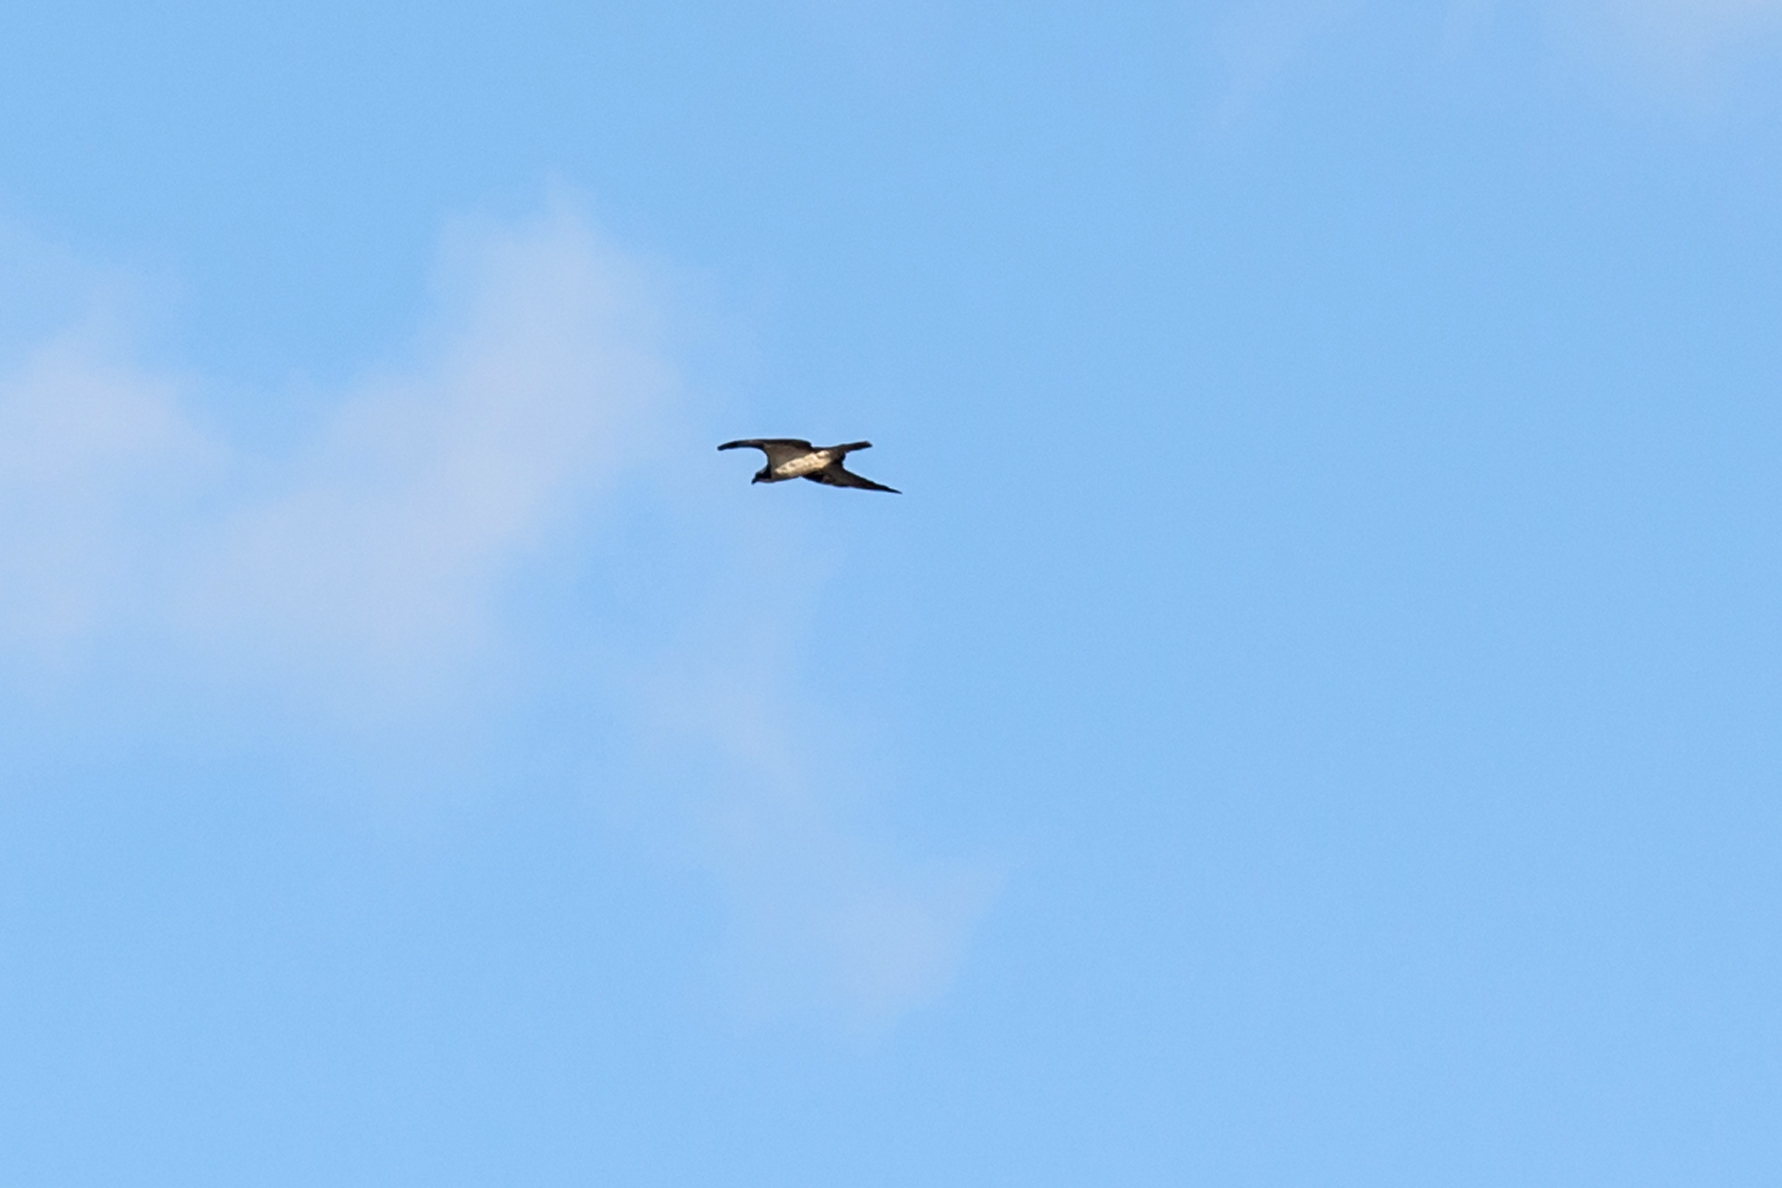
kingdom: Animalia
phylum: Chordata
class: Aves
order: Accipitriformes
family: Pandionidae
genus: Pandion
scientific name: Pandion haliaetus
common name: Osprey
